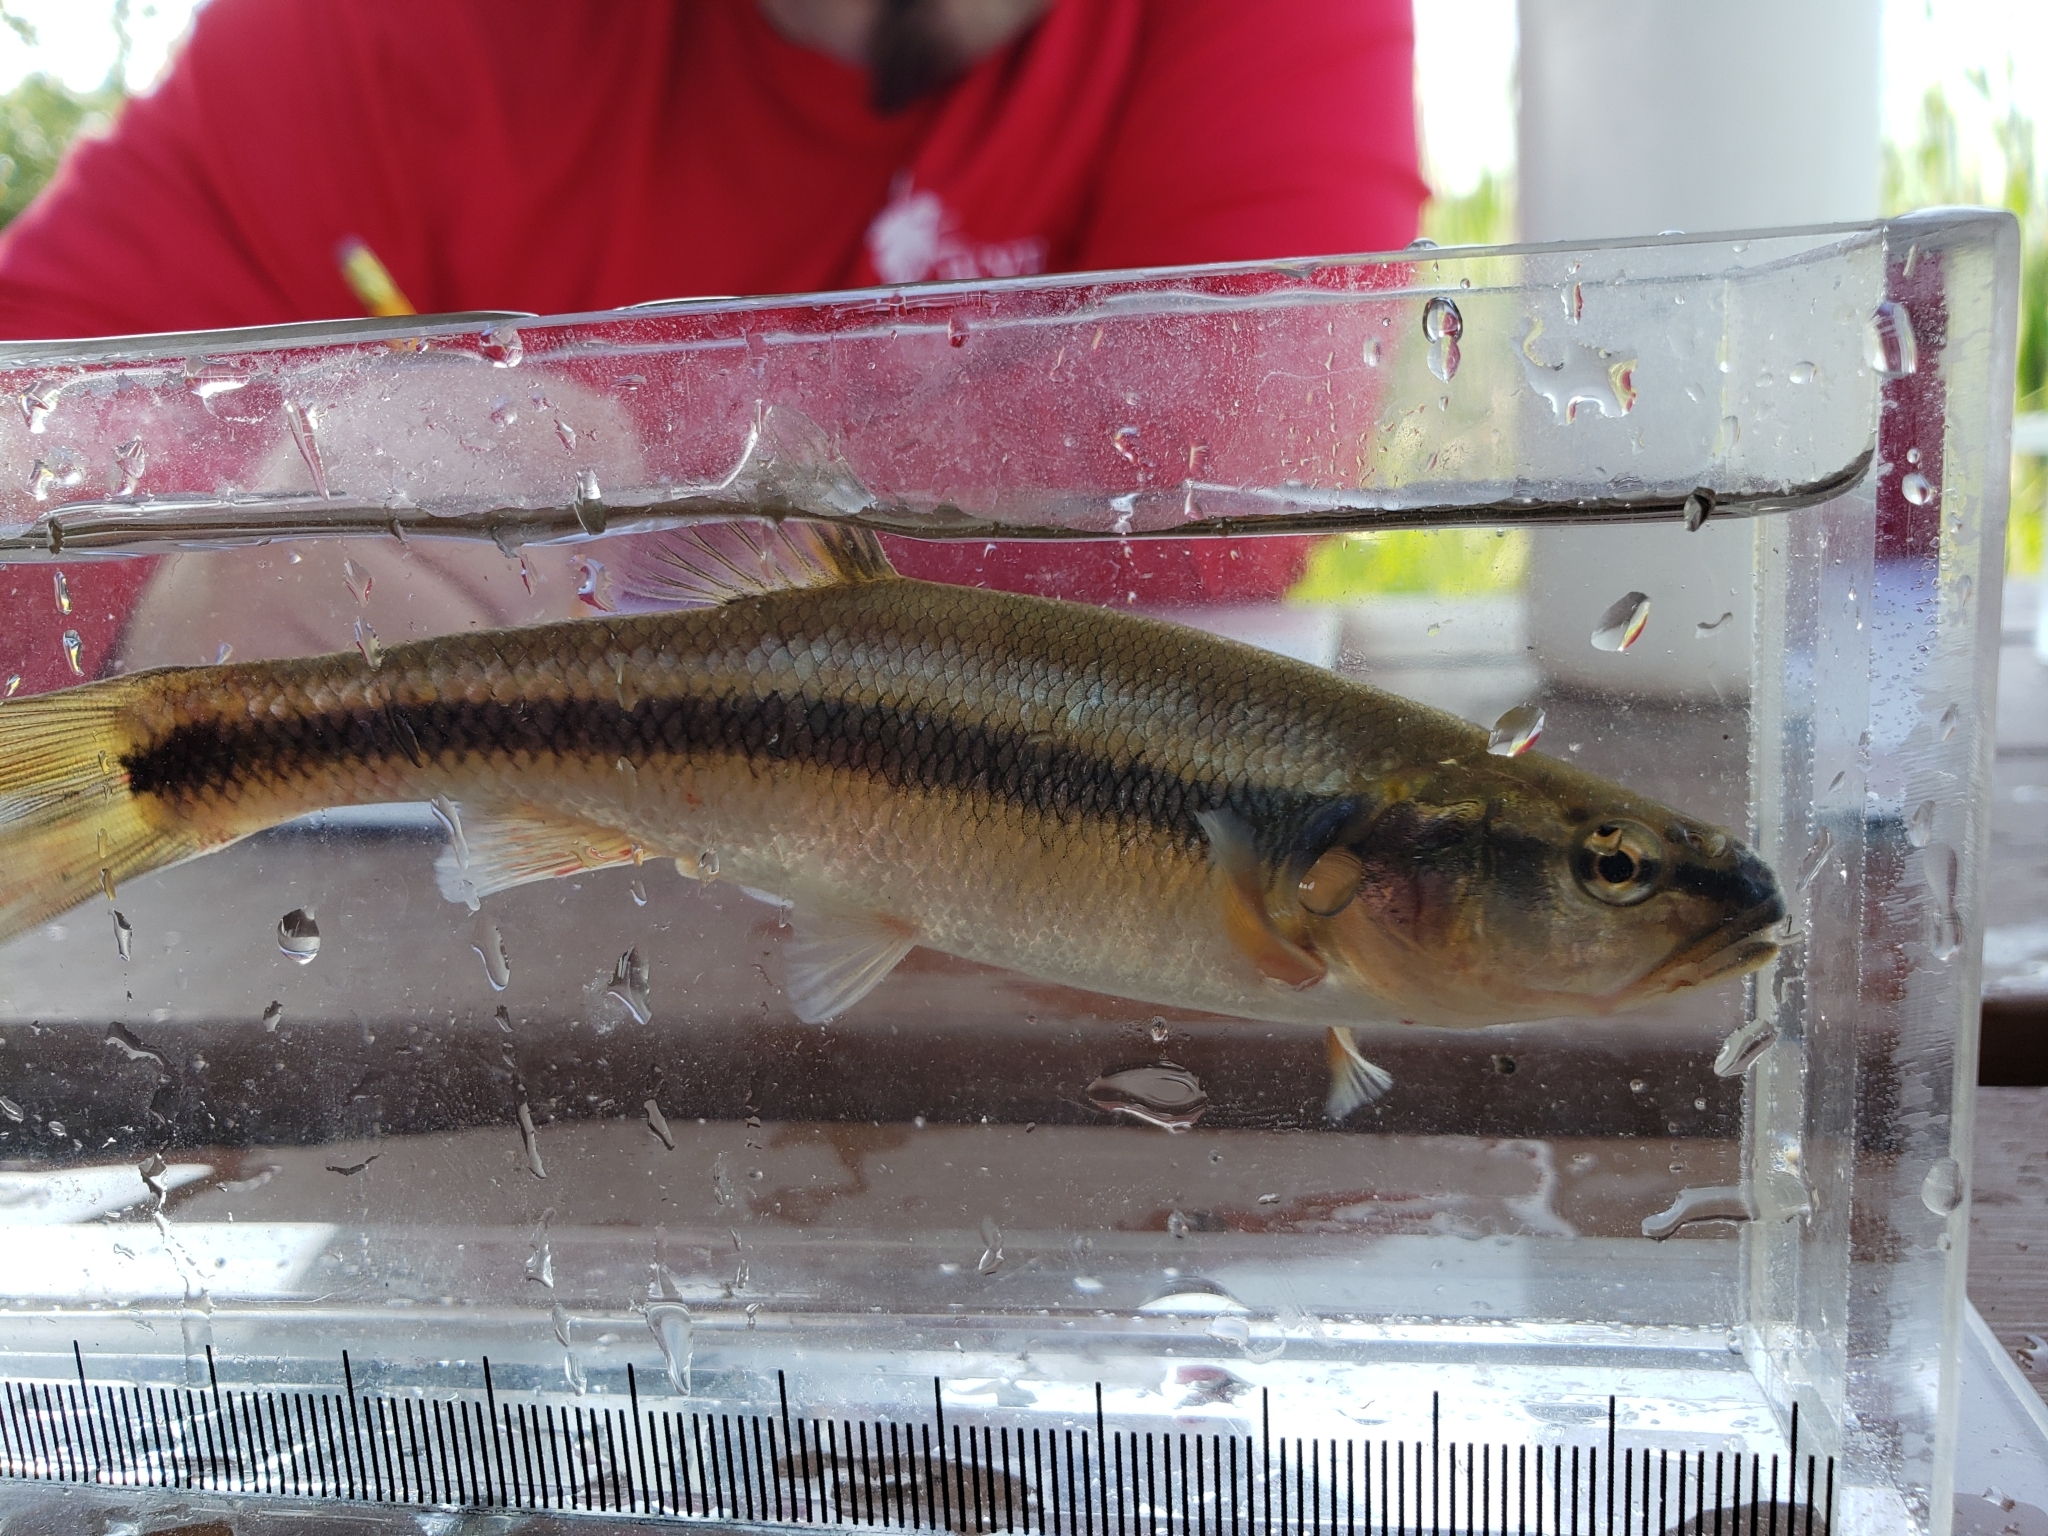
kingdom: Animalia
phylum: Chordata
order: Cypriniformes
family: Cyprinidae
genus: Semotilus
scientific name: Semotilus atromaculatus
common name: Creek chub
